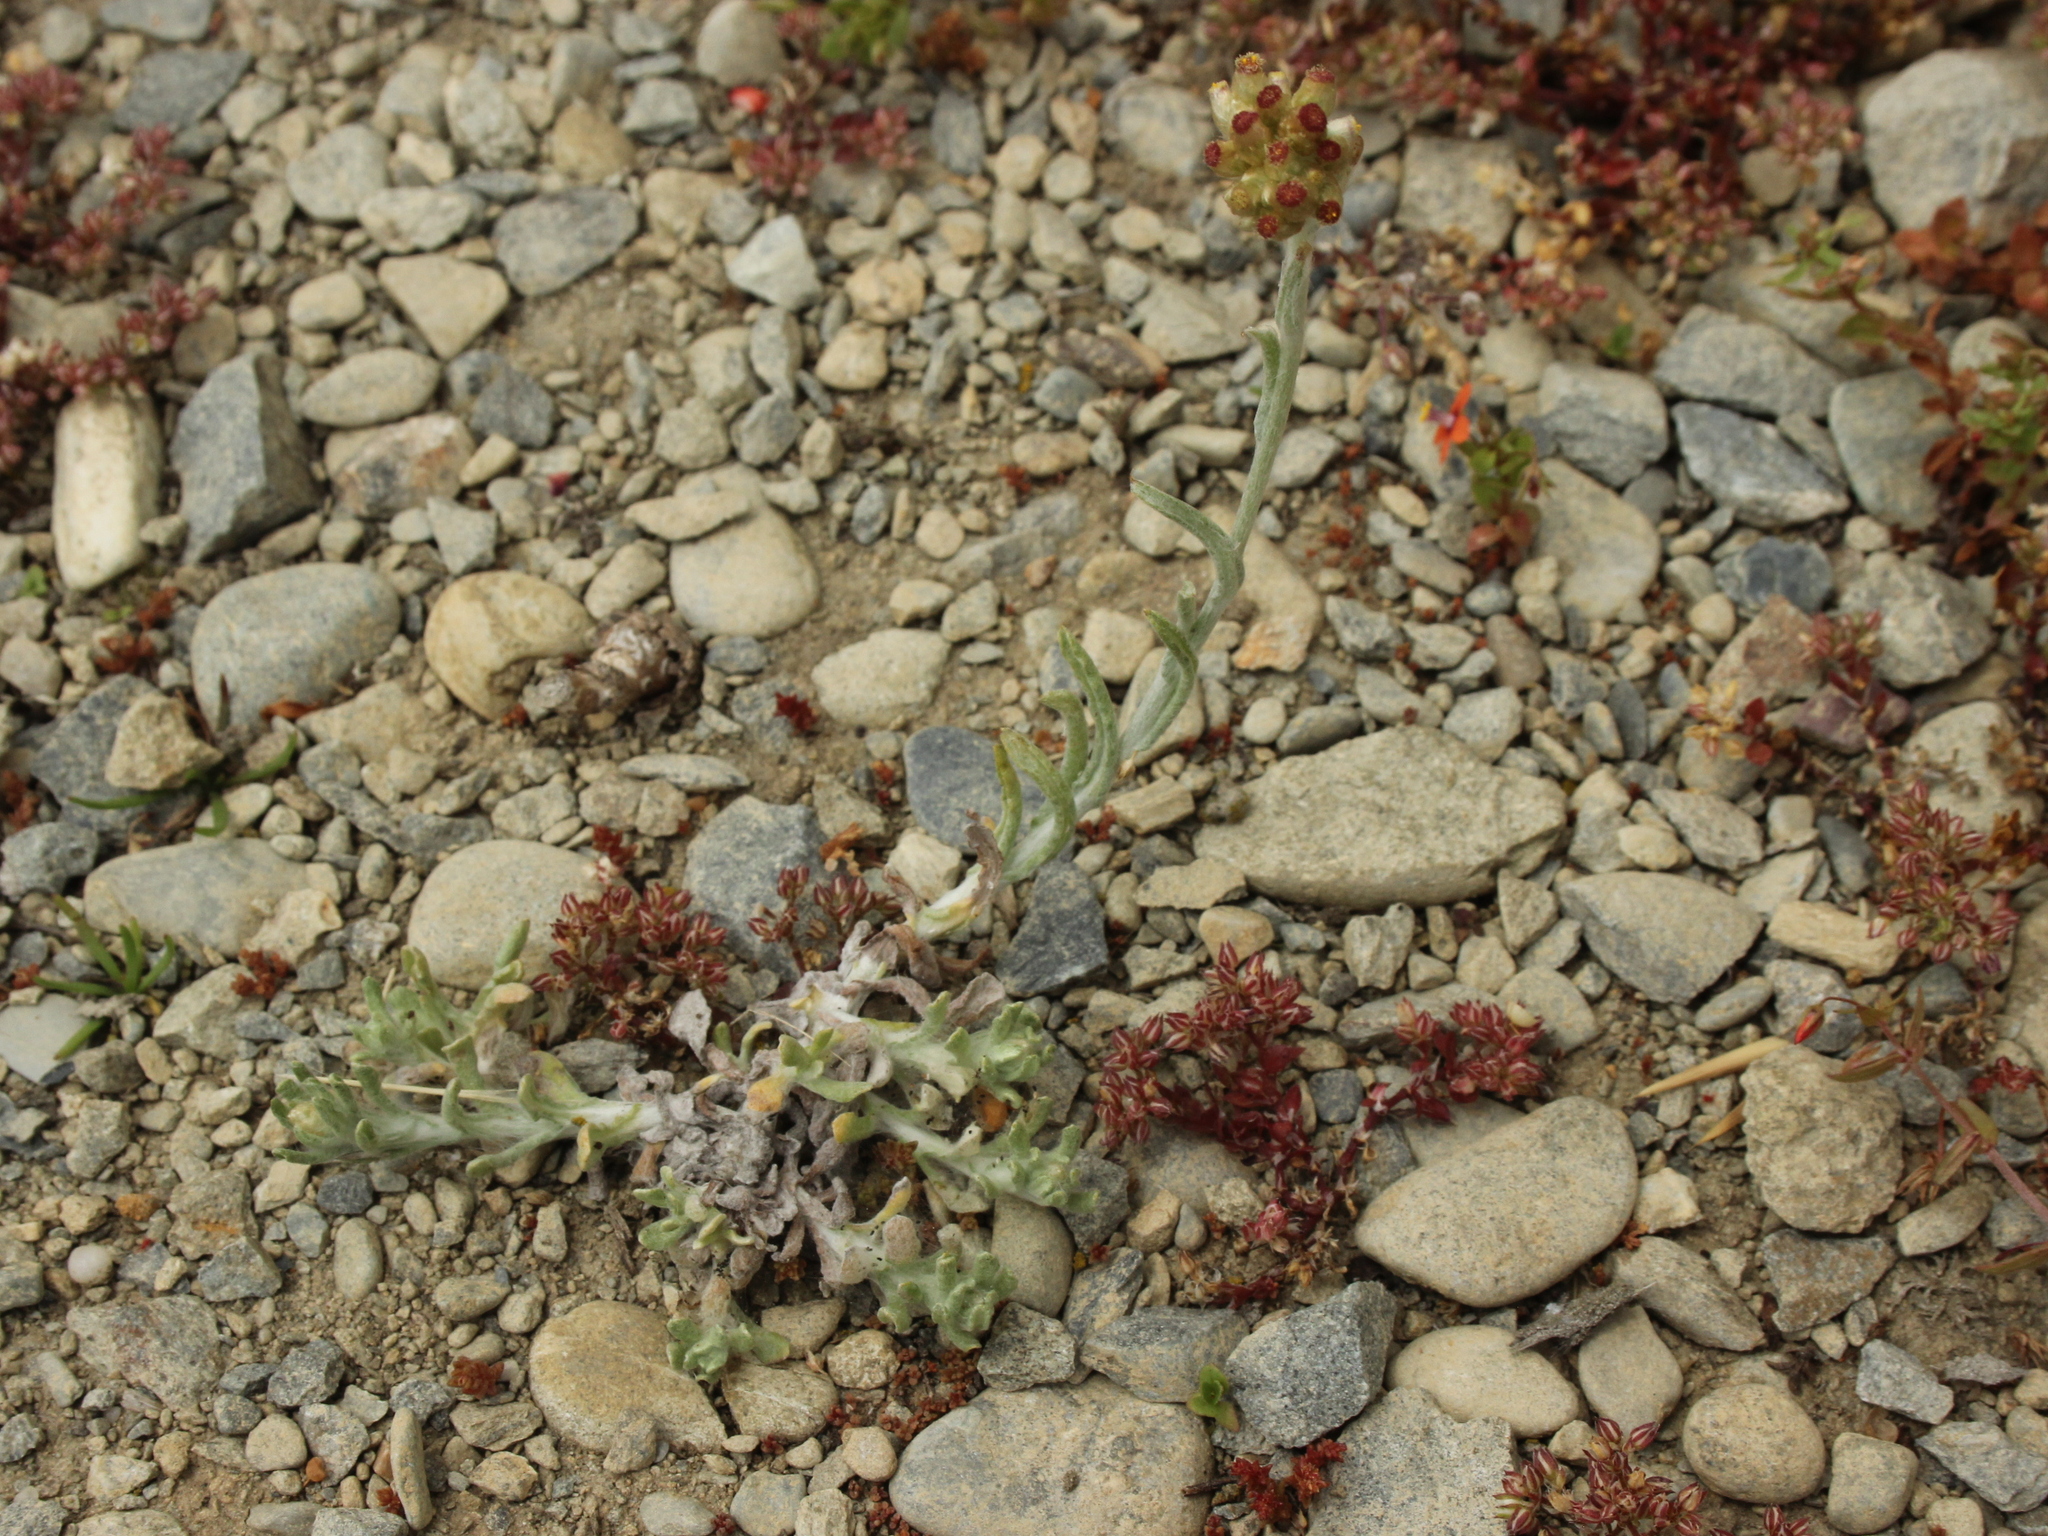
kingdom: Plantae
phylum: Tracheophyta
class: Magnoliopsida
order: Asterales
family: Asteraceae
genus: Helichrysum
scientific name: Helichrysum luteoalbum
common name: Daisy
